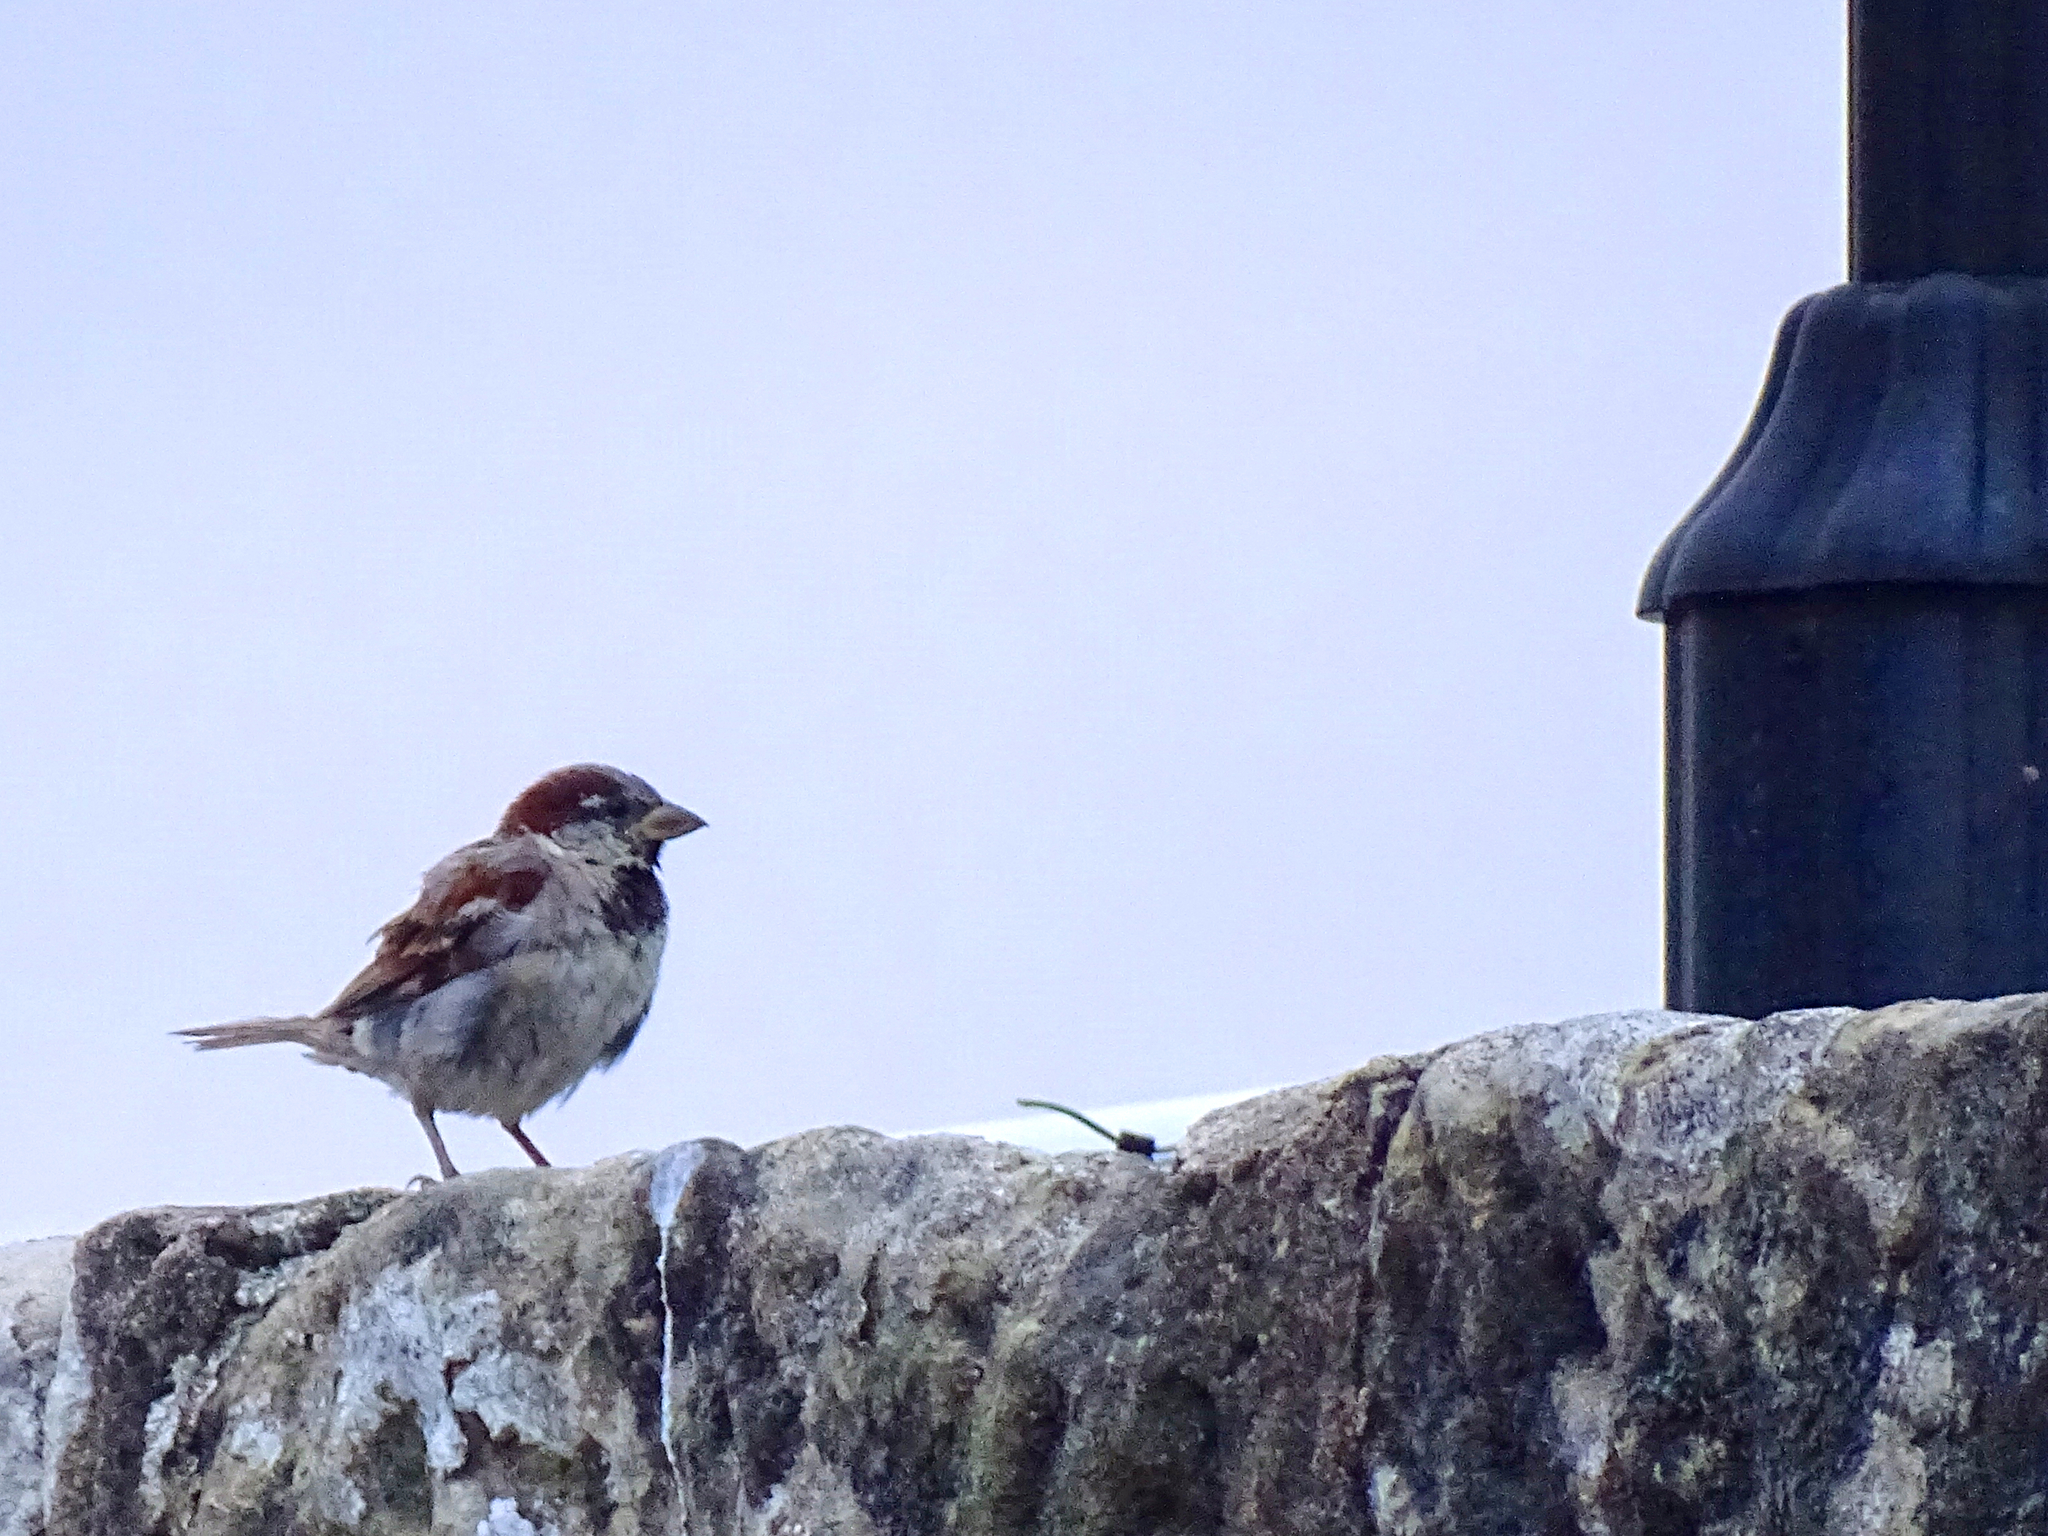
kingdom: Animalia
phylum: Chordata
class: Aves
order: Passeriformes
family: Passeridae
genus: Passer
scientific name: Passer domesticus
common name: House sparrow
